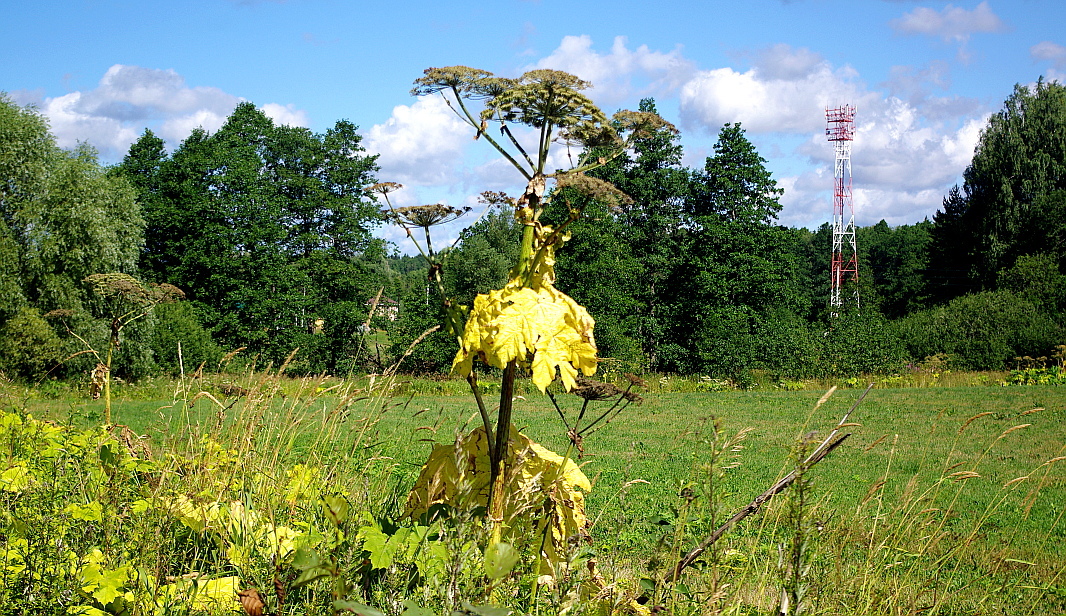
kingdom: Plantae
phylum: Tracheophyta
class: Magnoliopsida
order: Apiales
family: Apiaceae
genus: Heracleum
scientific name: Heracleum sosnowskyi
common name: Sosnowsky's hogweed
